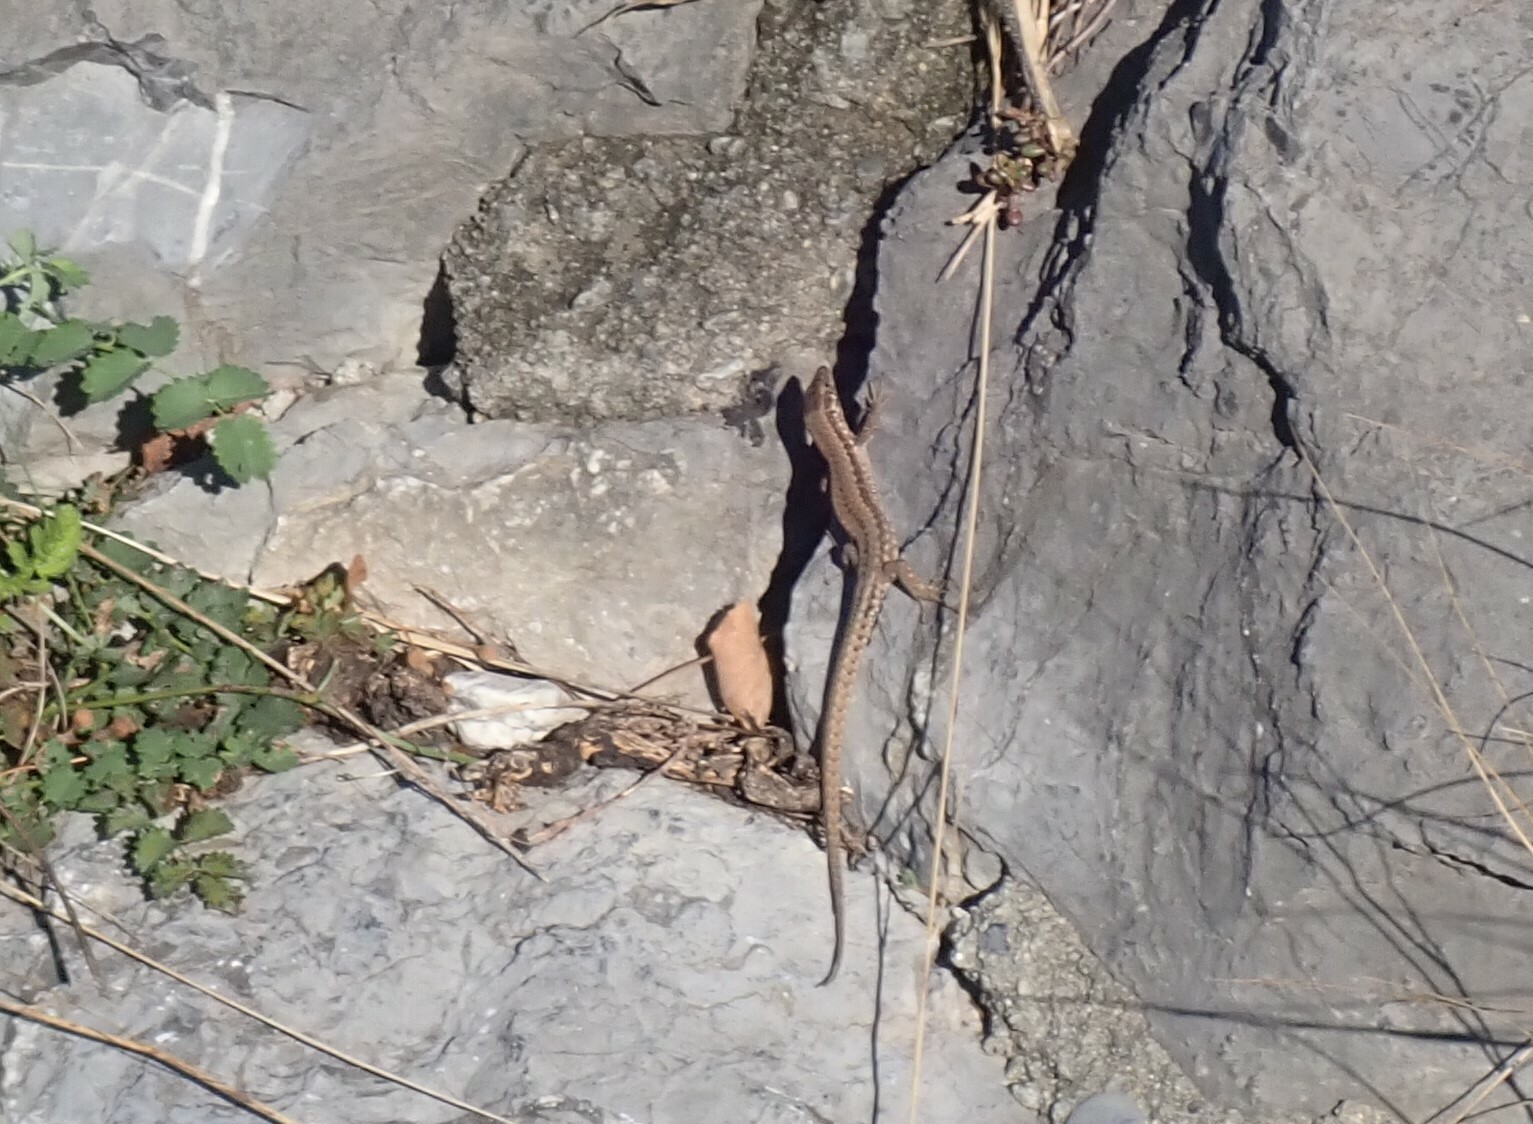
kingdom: Animalia
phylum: Chordata
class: Squamata
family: Lacertidae
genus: Podarcis
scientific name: Podarcis muralis
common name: Common wall lizard
